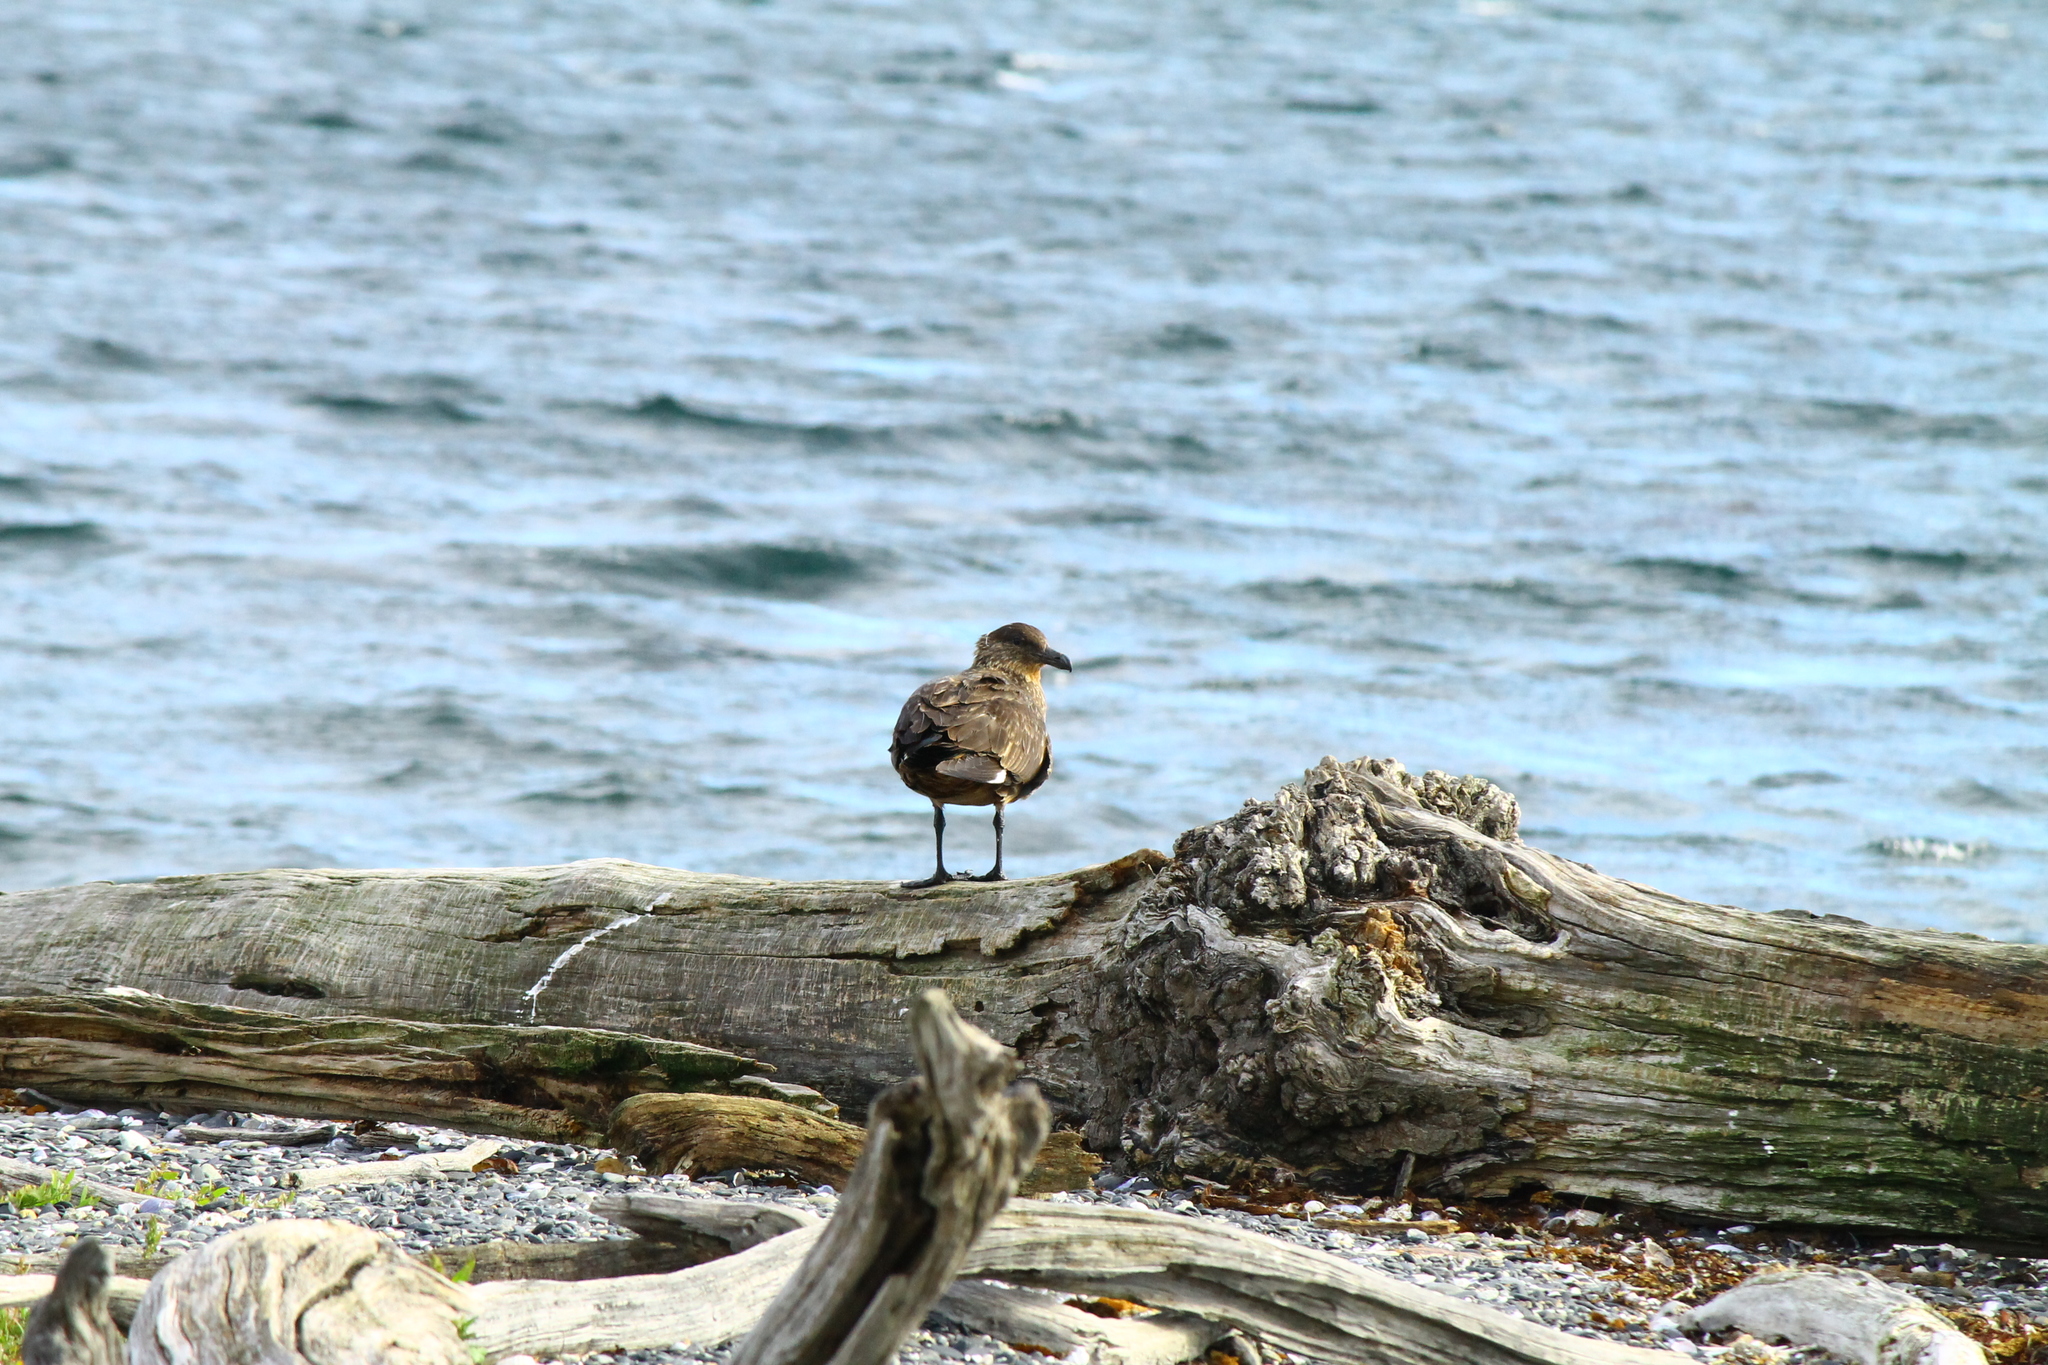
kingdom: Animalia
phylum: Chordata
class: Aves
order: Charadriiformes
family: Stercorariidae
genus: Stercorarius
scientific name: Stercorarius chilensis
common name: Chilean skua
